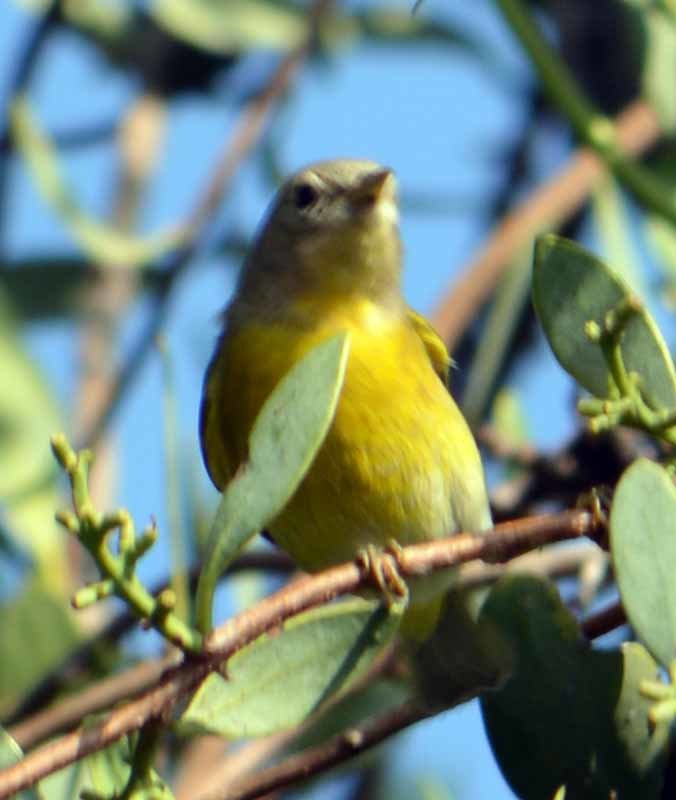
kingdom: Animalia
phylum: Chordata
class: Aves
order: Passeriformes
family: Parulidae
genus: Leiothlypis
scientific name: Leiothlypis ruficapilla
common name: Nashville warbler
